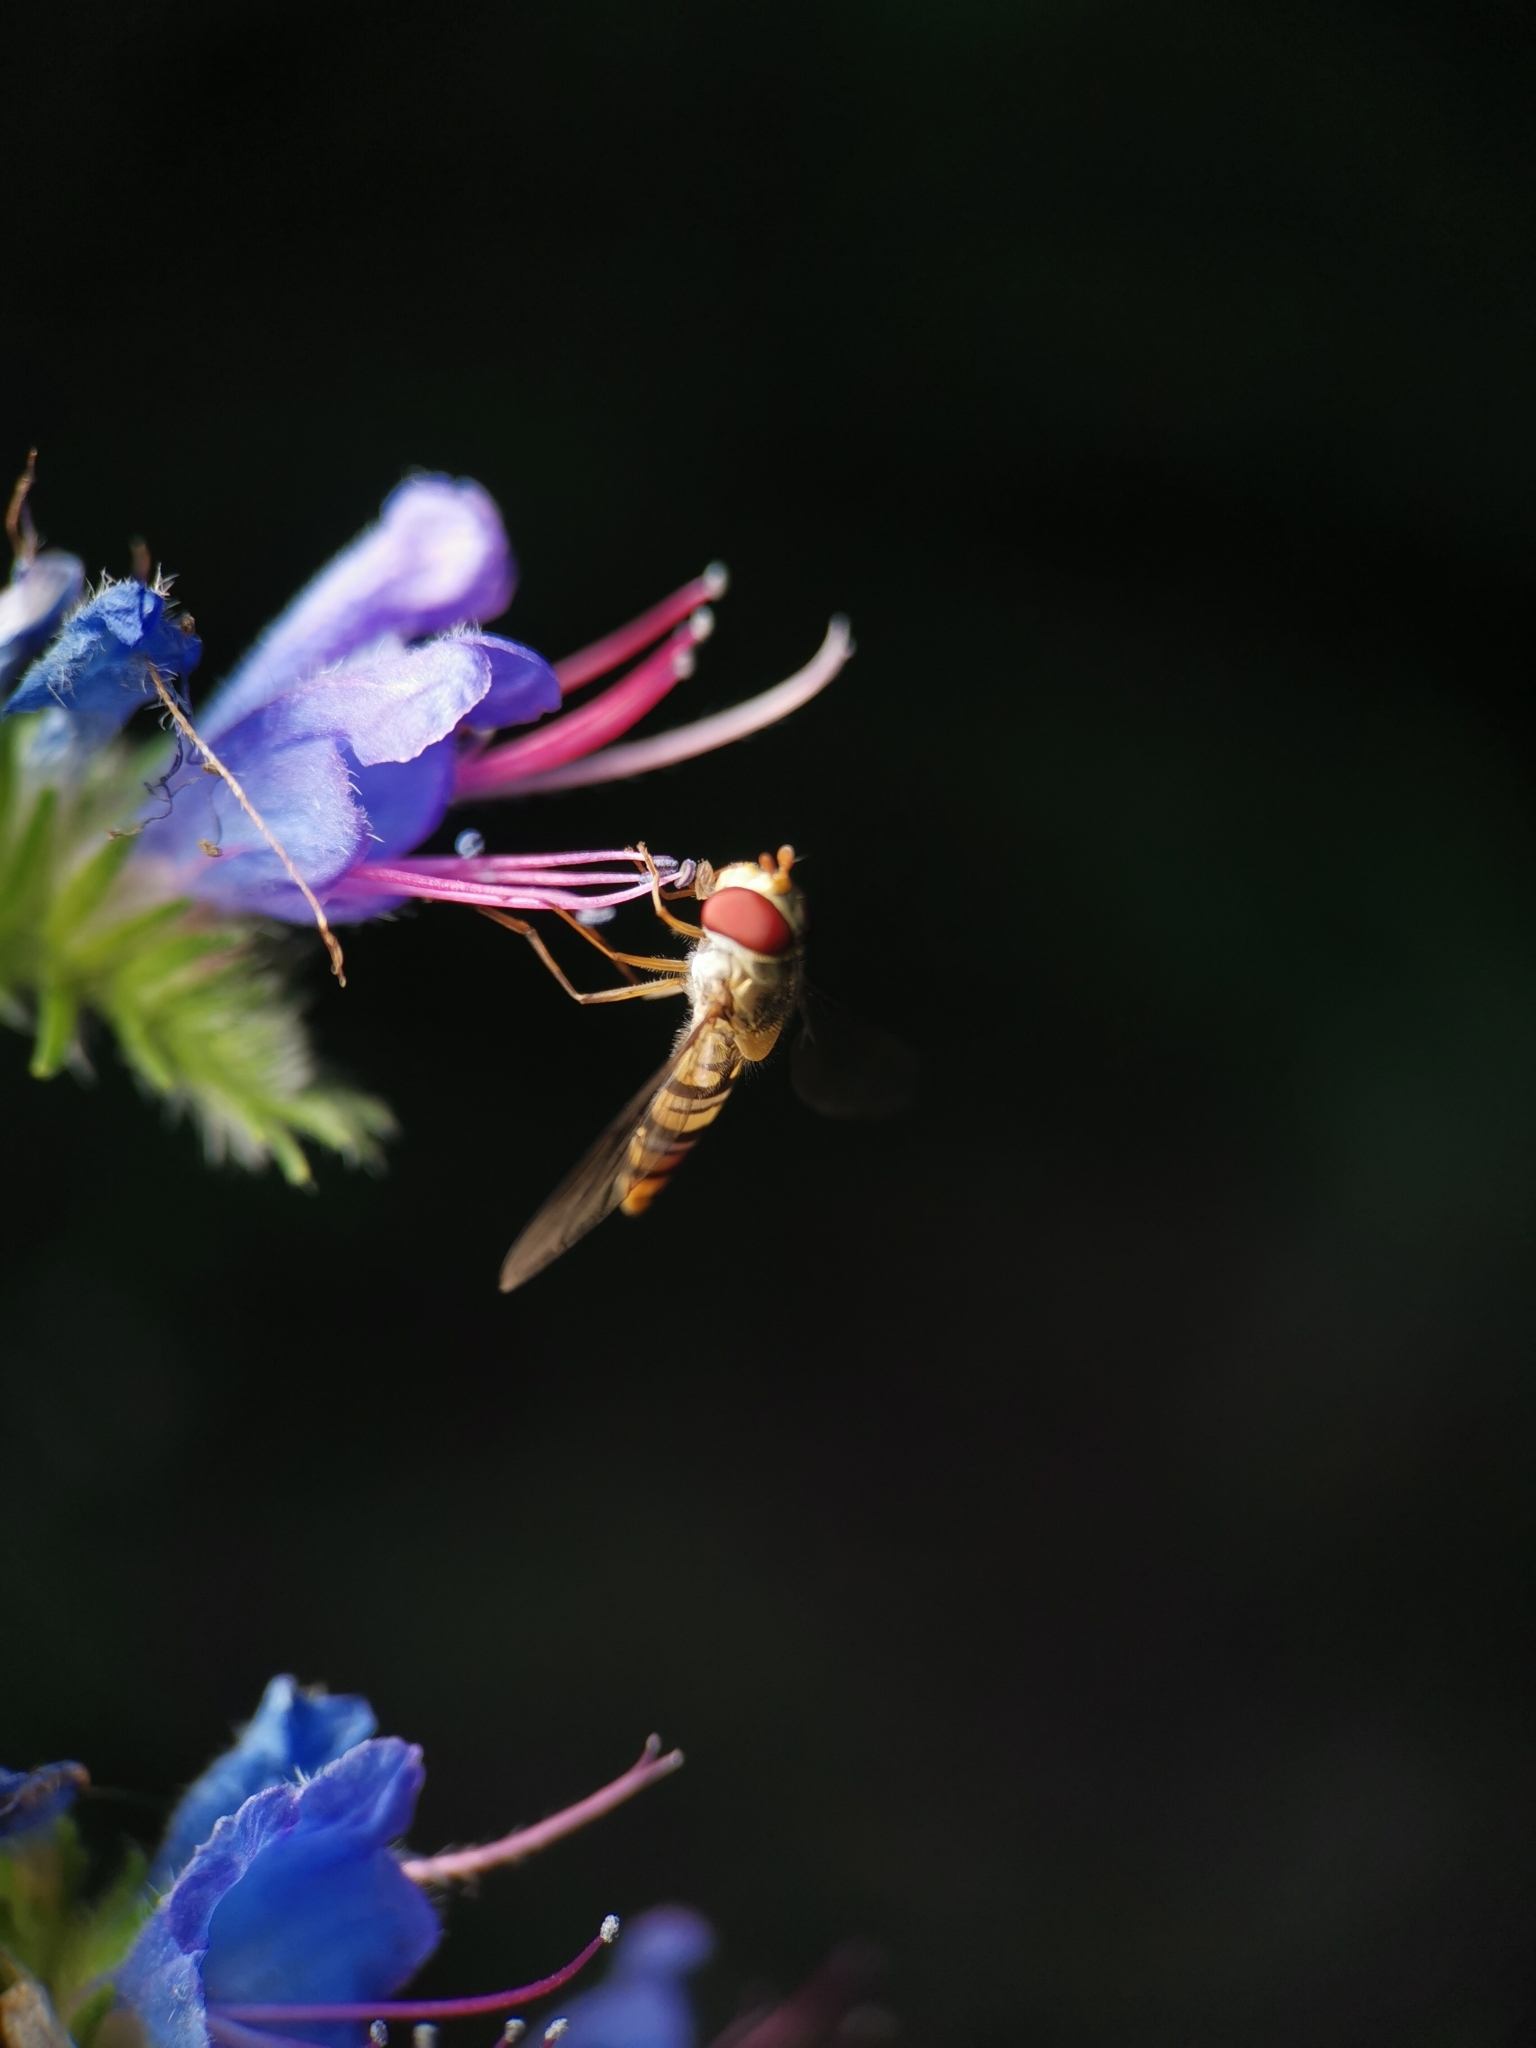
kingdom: Animalia
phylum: Arthropoda
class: Insecta
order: Diptera
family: Syrphidae
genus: Episyrphus
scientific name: Episyrphus balteatus
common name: Marmalade hoverfly
